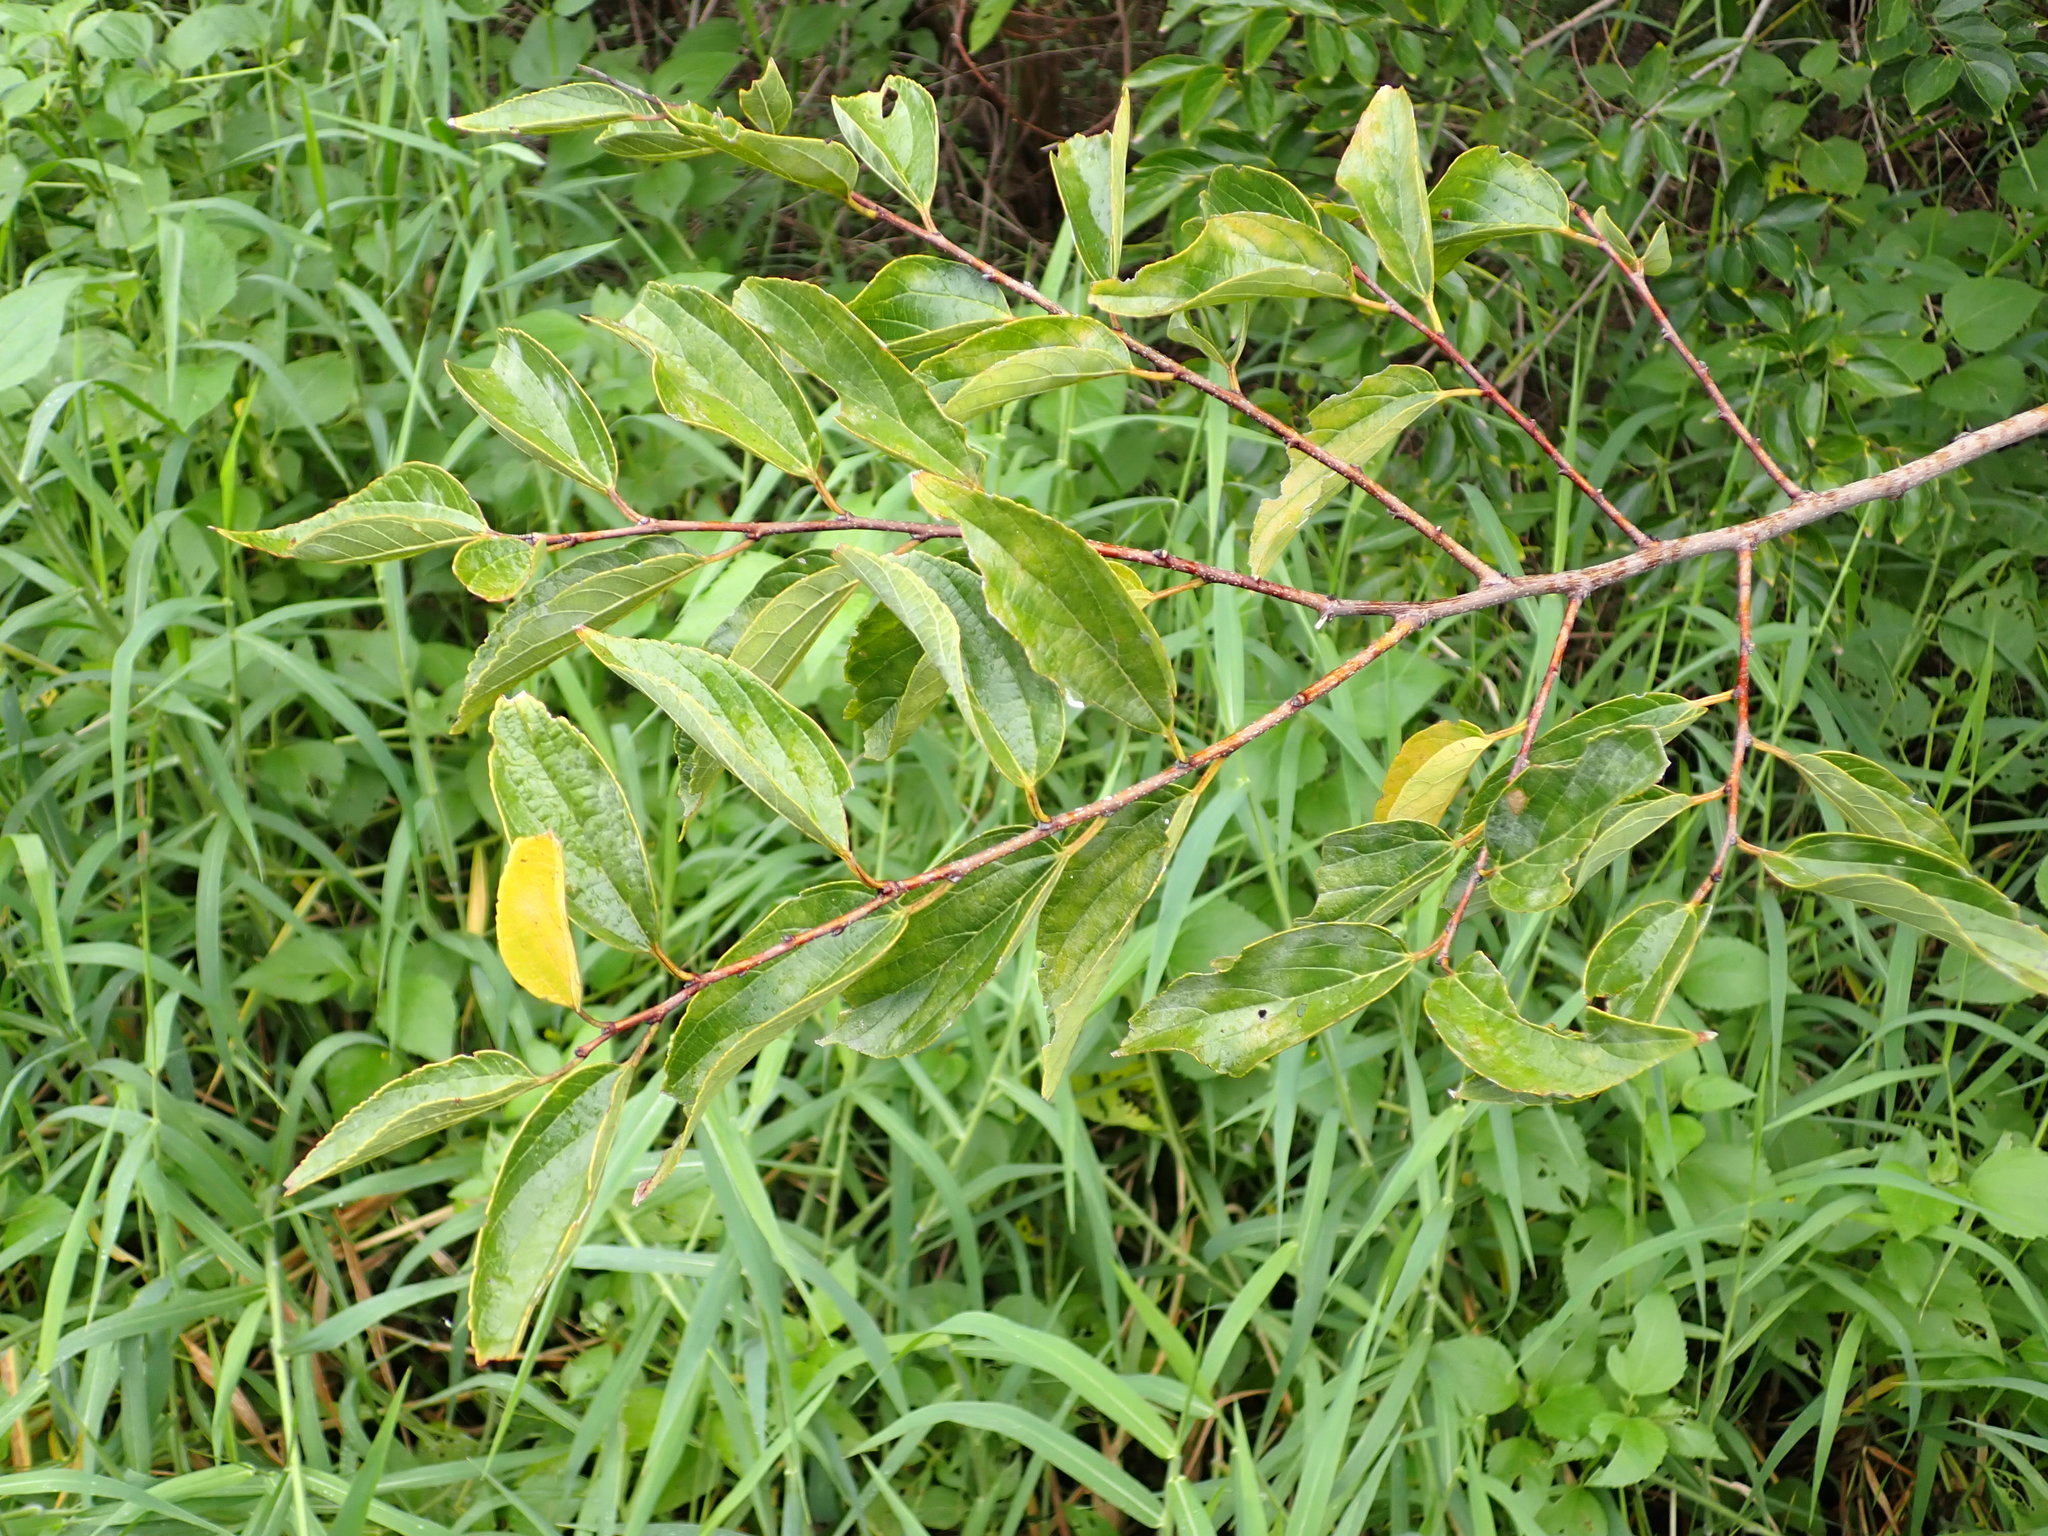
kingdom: Plantae
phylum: Tracheophyta
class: Magnoliopsida
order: Rosales
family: Cannabaceae
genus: Celtis
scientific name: Celtis sinensis
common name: Chinese hackberry
